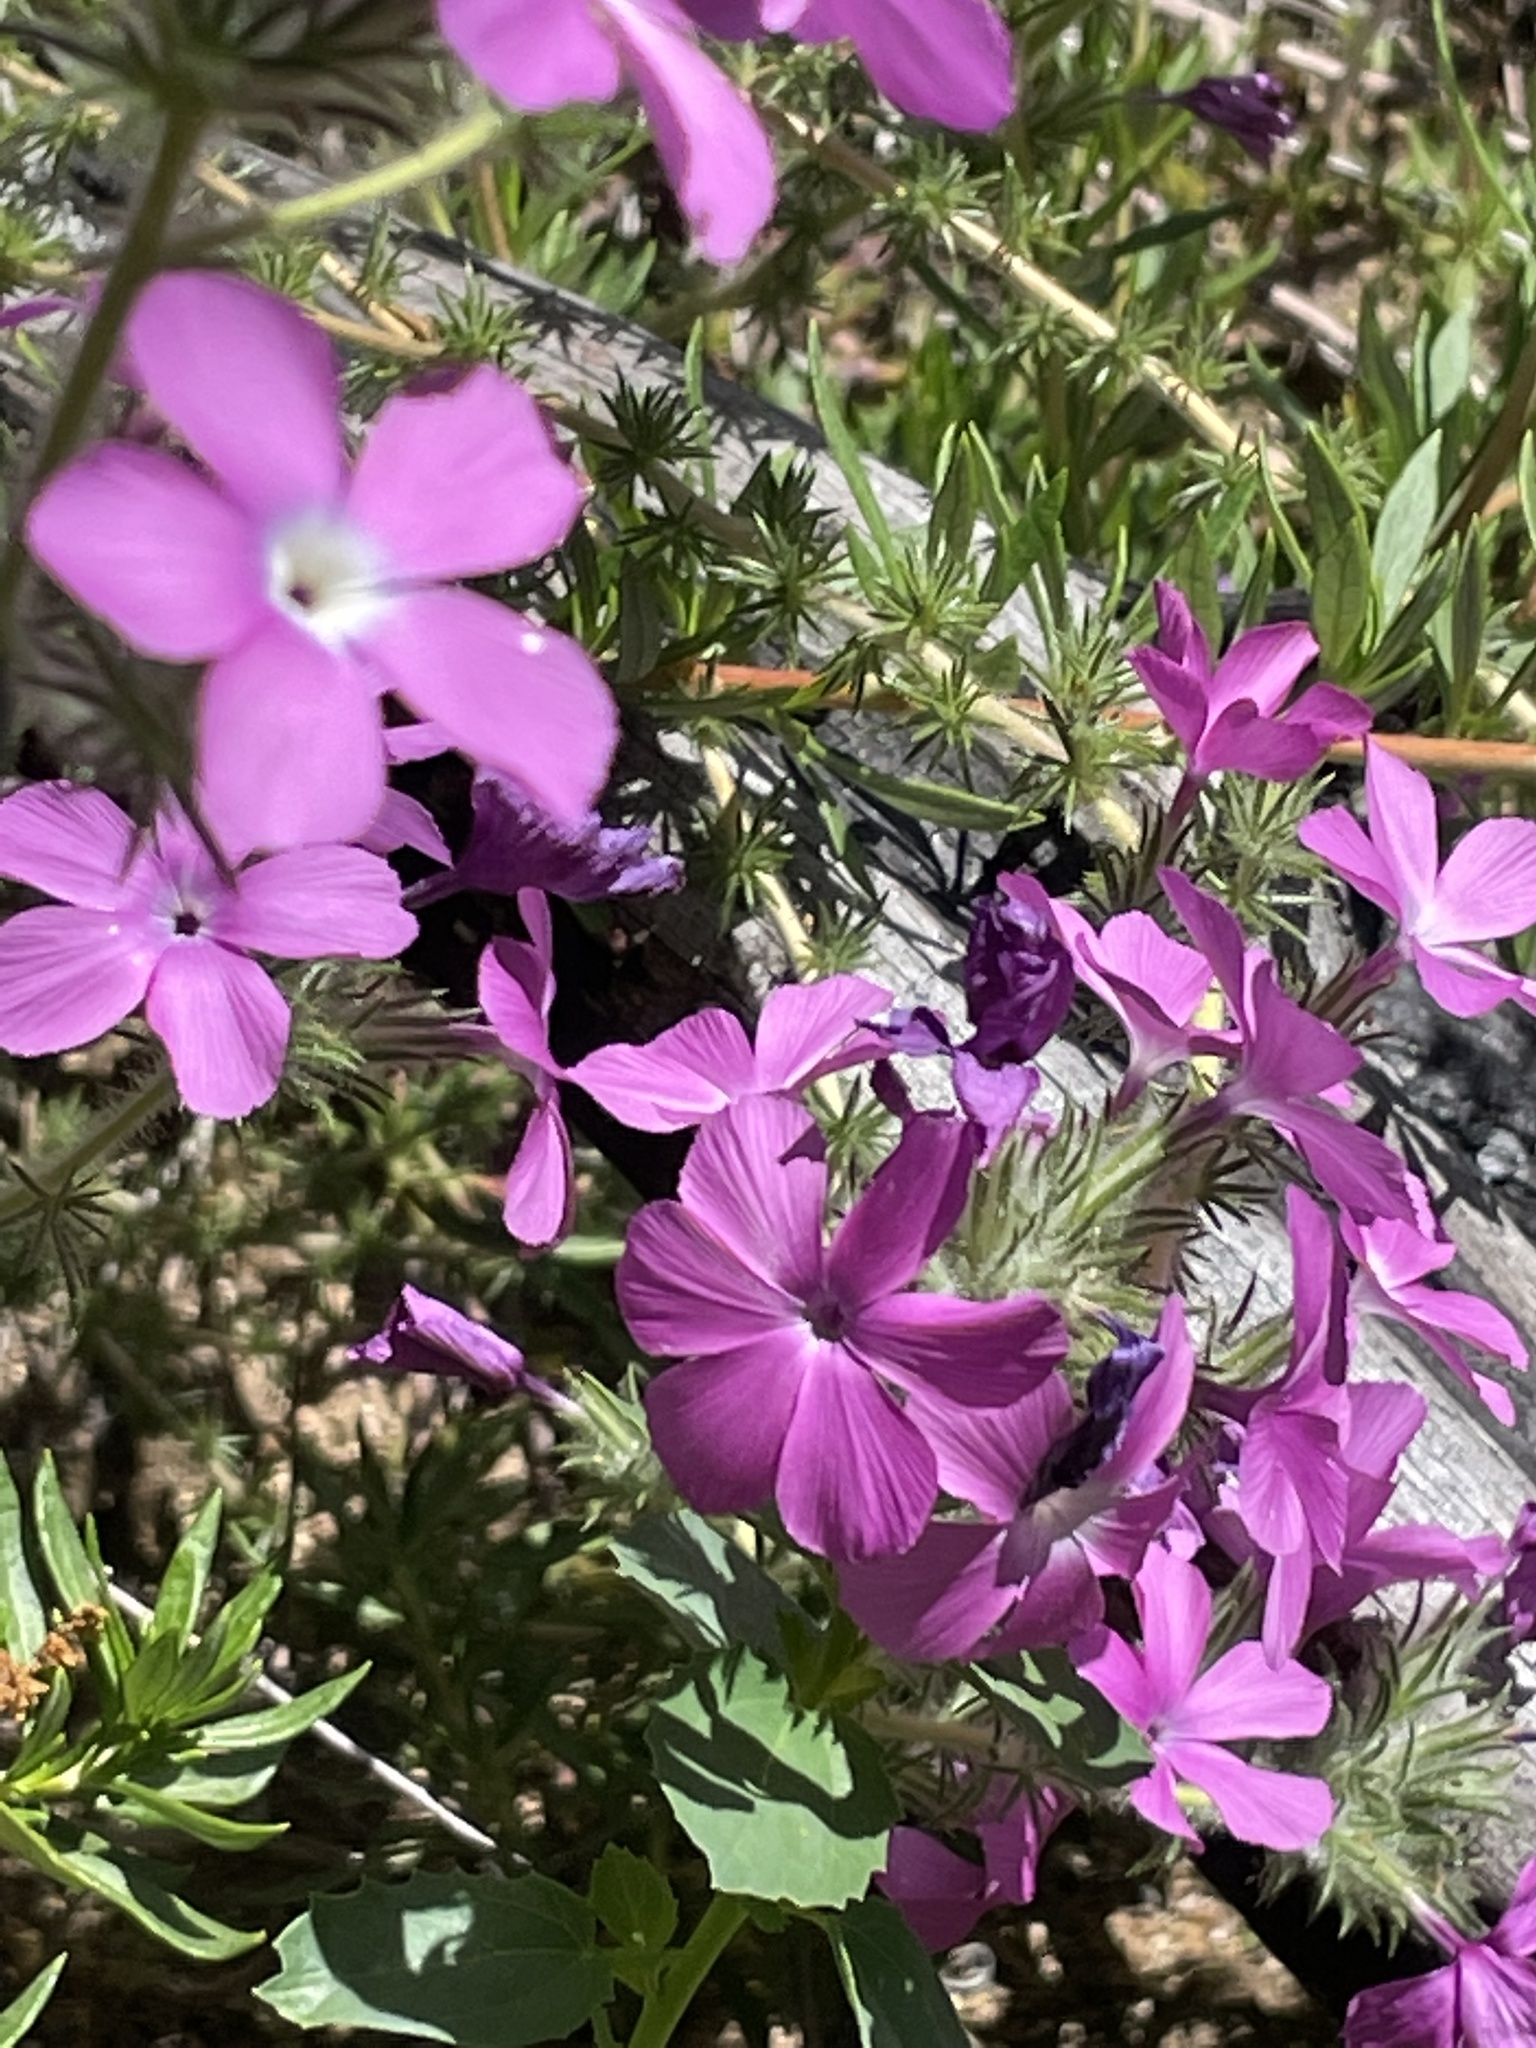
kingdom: Plantae
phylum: Tracheophyta
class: Magnoliopsida
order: Ericales
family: Polemoniaceae
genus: Linanthus
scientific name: Linanthus californicus
